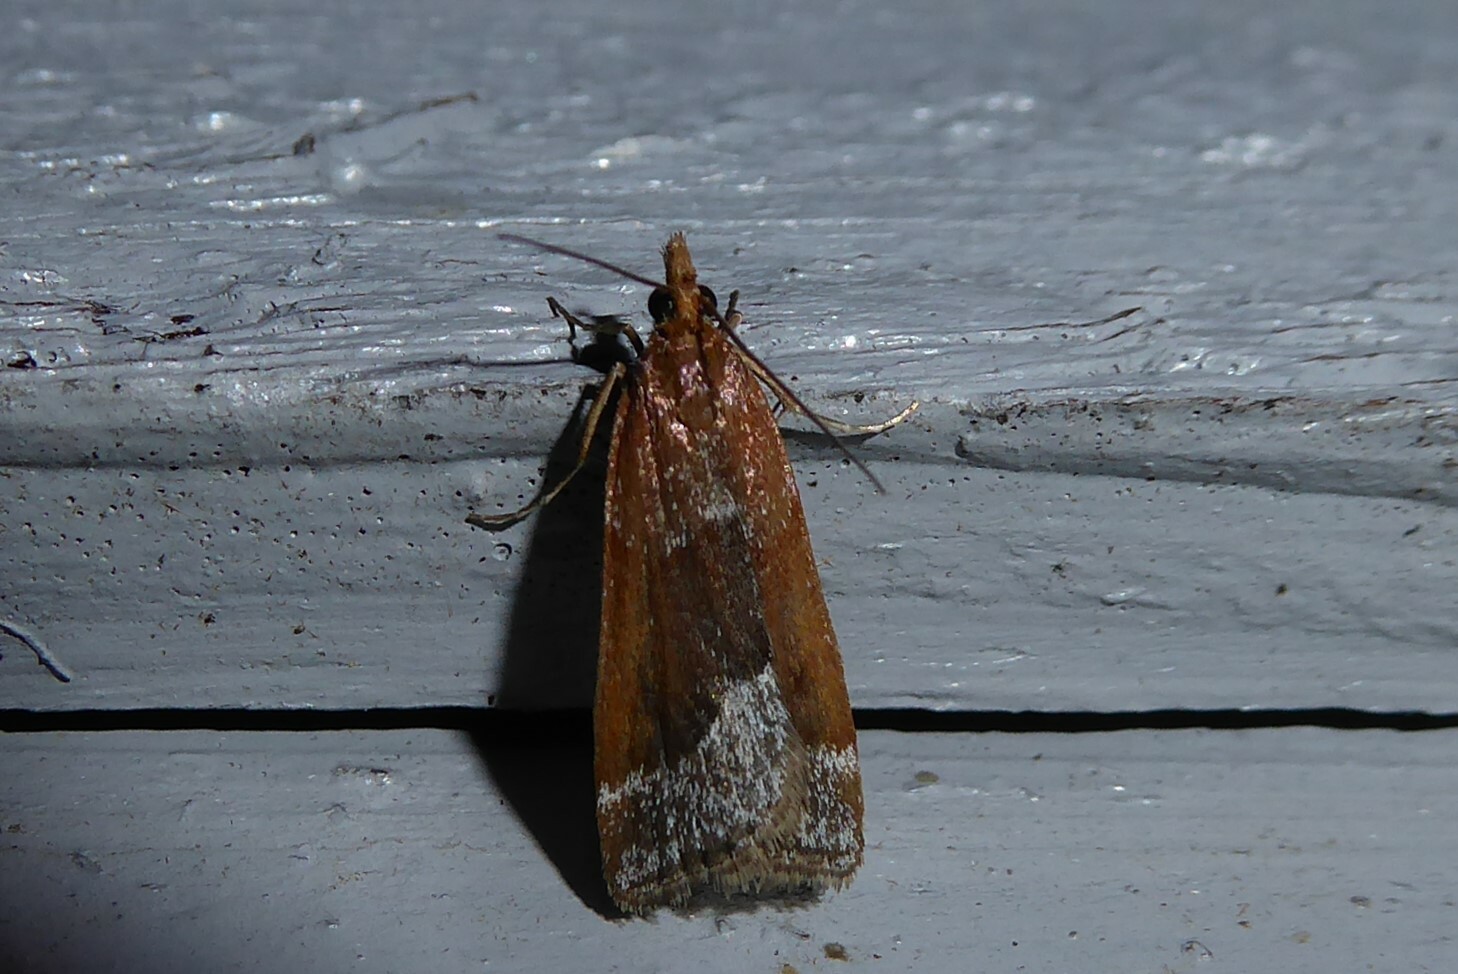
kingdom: Animalia
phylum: Arthropoda
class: Insecta
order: Lepidoptera
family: Crambidae
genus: Eudonia
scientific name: Eudonia feredayi
